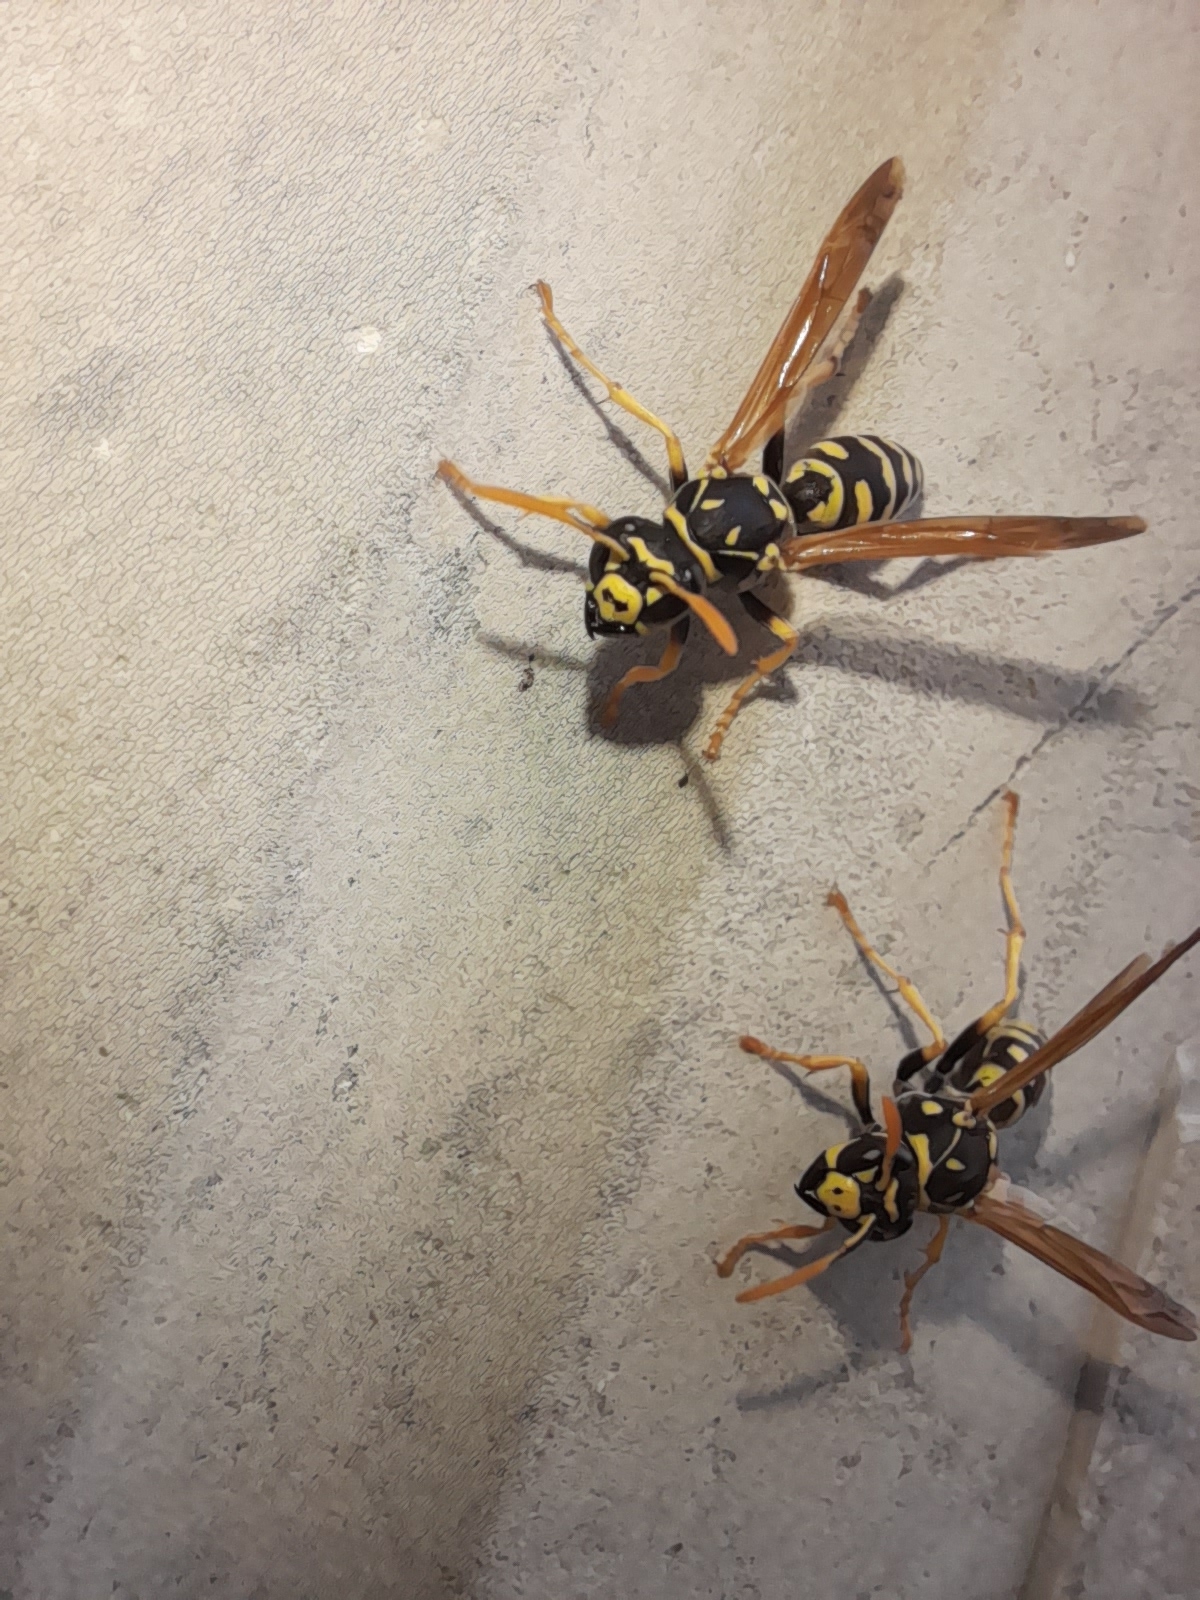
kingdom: Animalia
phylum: Arthropoda
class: Insecta
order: Hymenoptera
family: Eumenidae
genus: Polistes
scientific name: Polistes dominula
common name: Paper wasp
